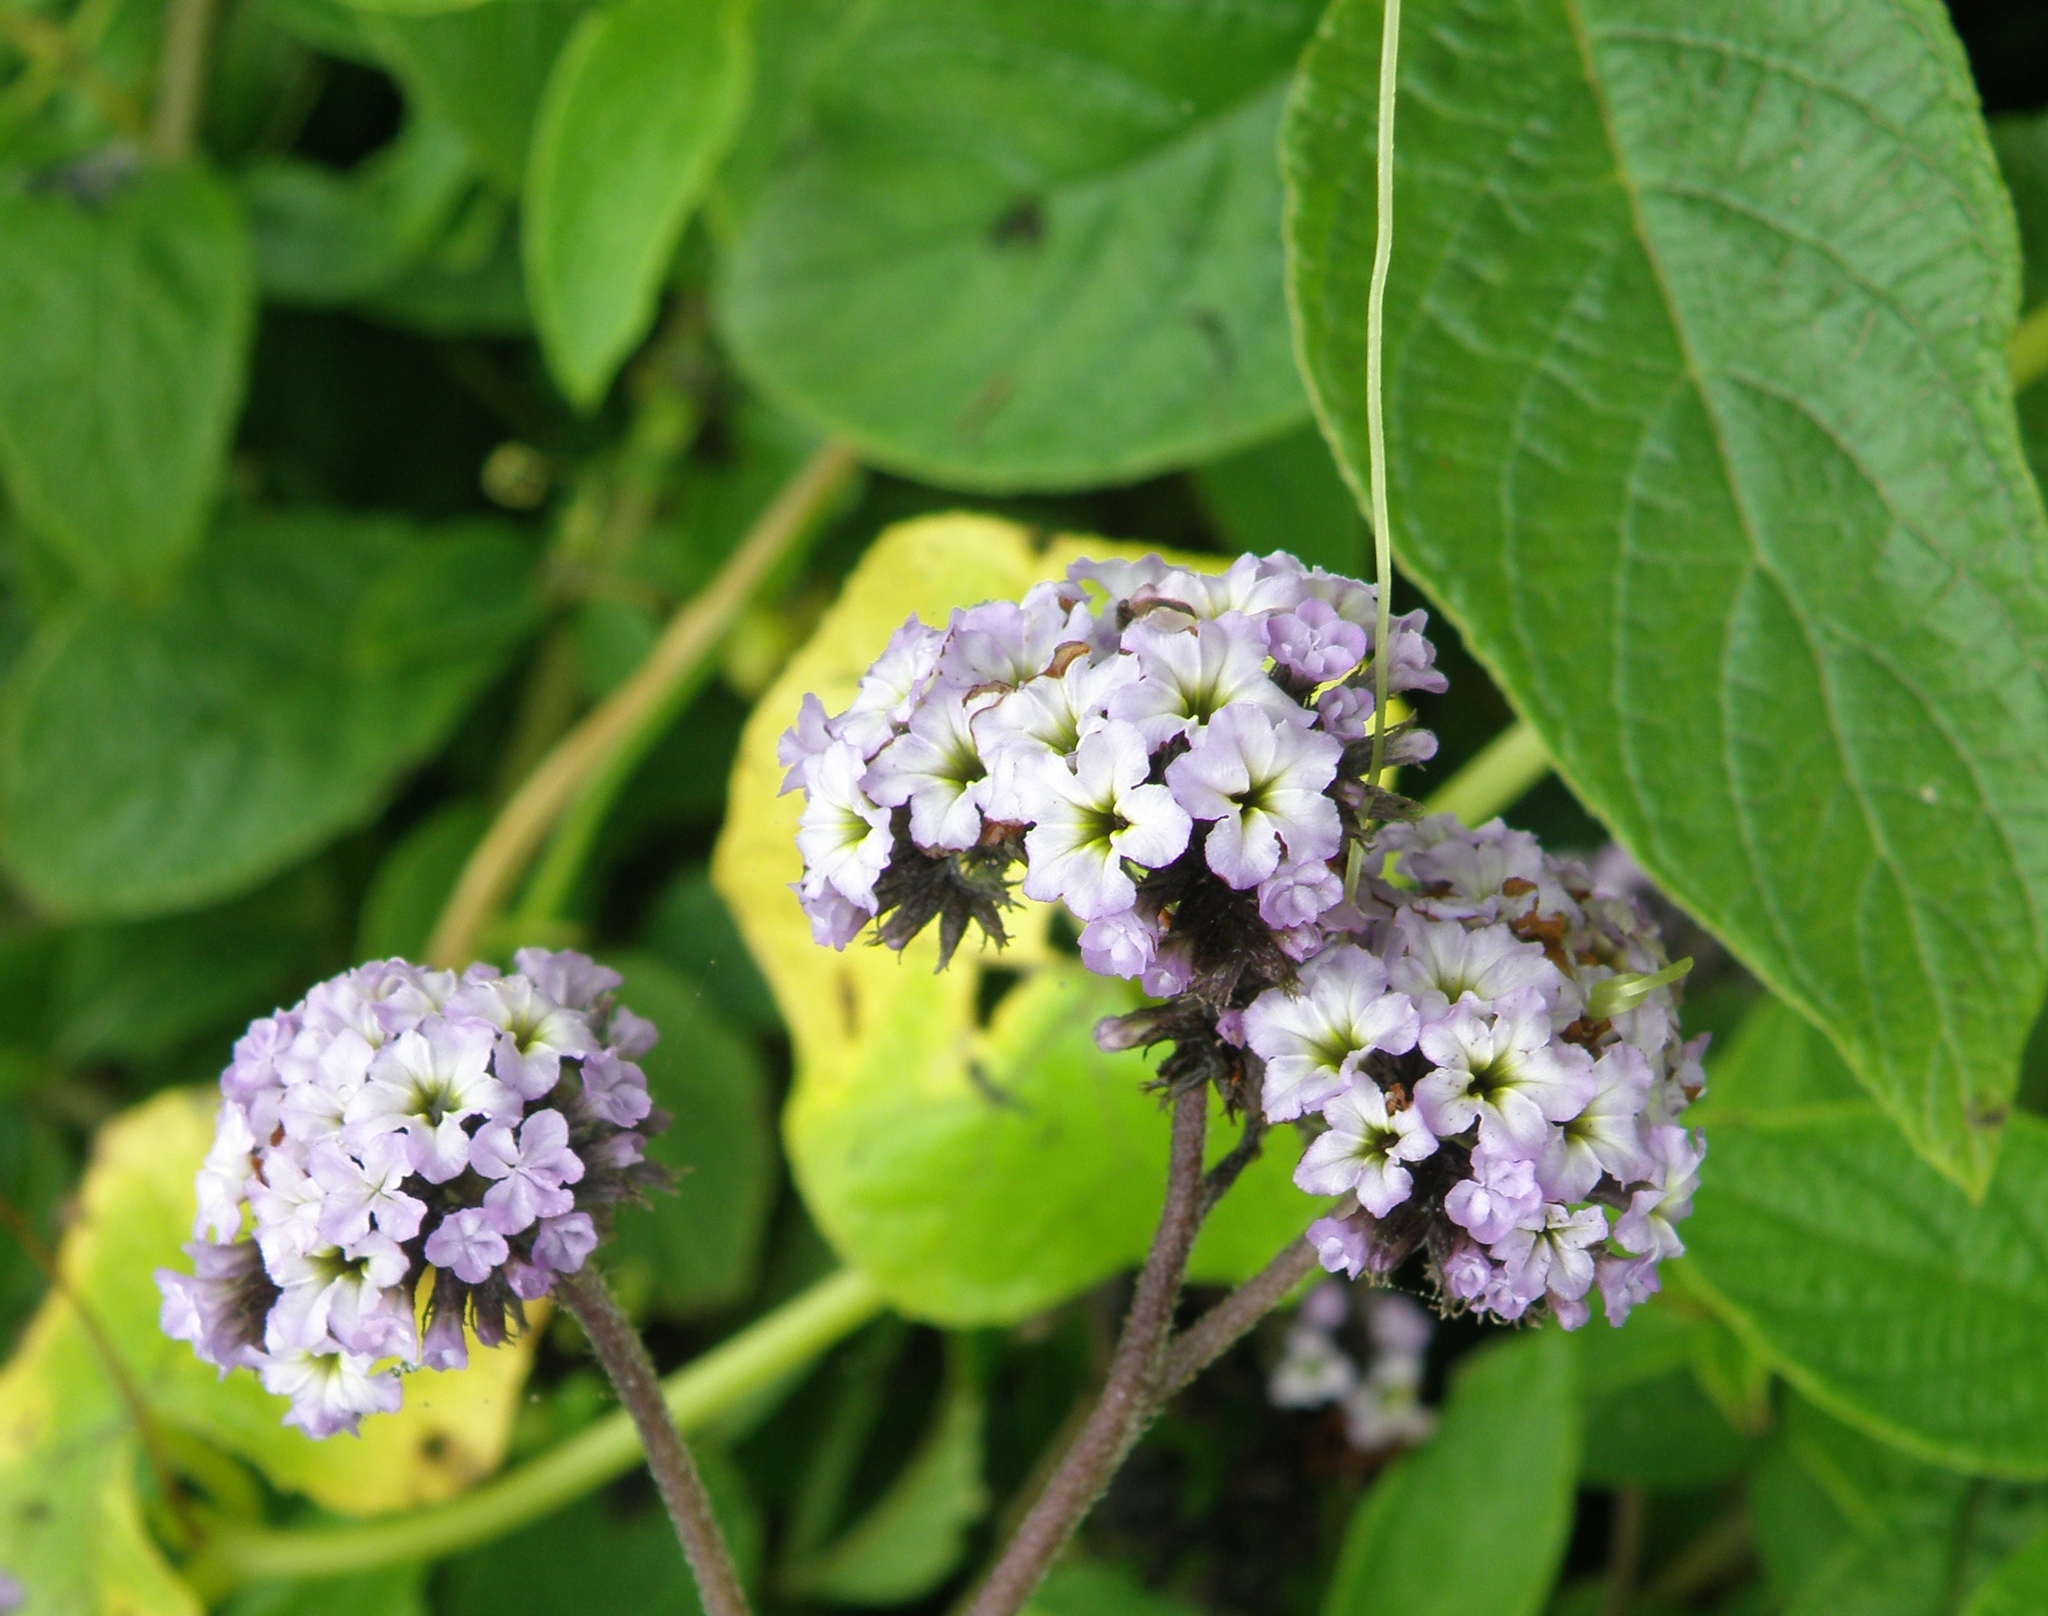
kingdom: Plantae
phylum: Tracheophyta
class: Magnoliopsida
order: Boraginales
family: Heliotropiaceae
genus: Heliotropium
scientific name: Heliotropium arborescens
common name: Cherry-pie
